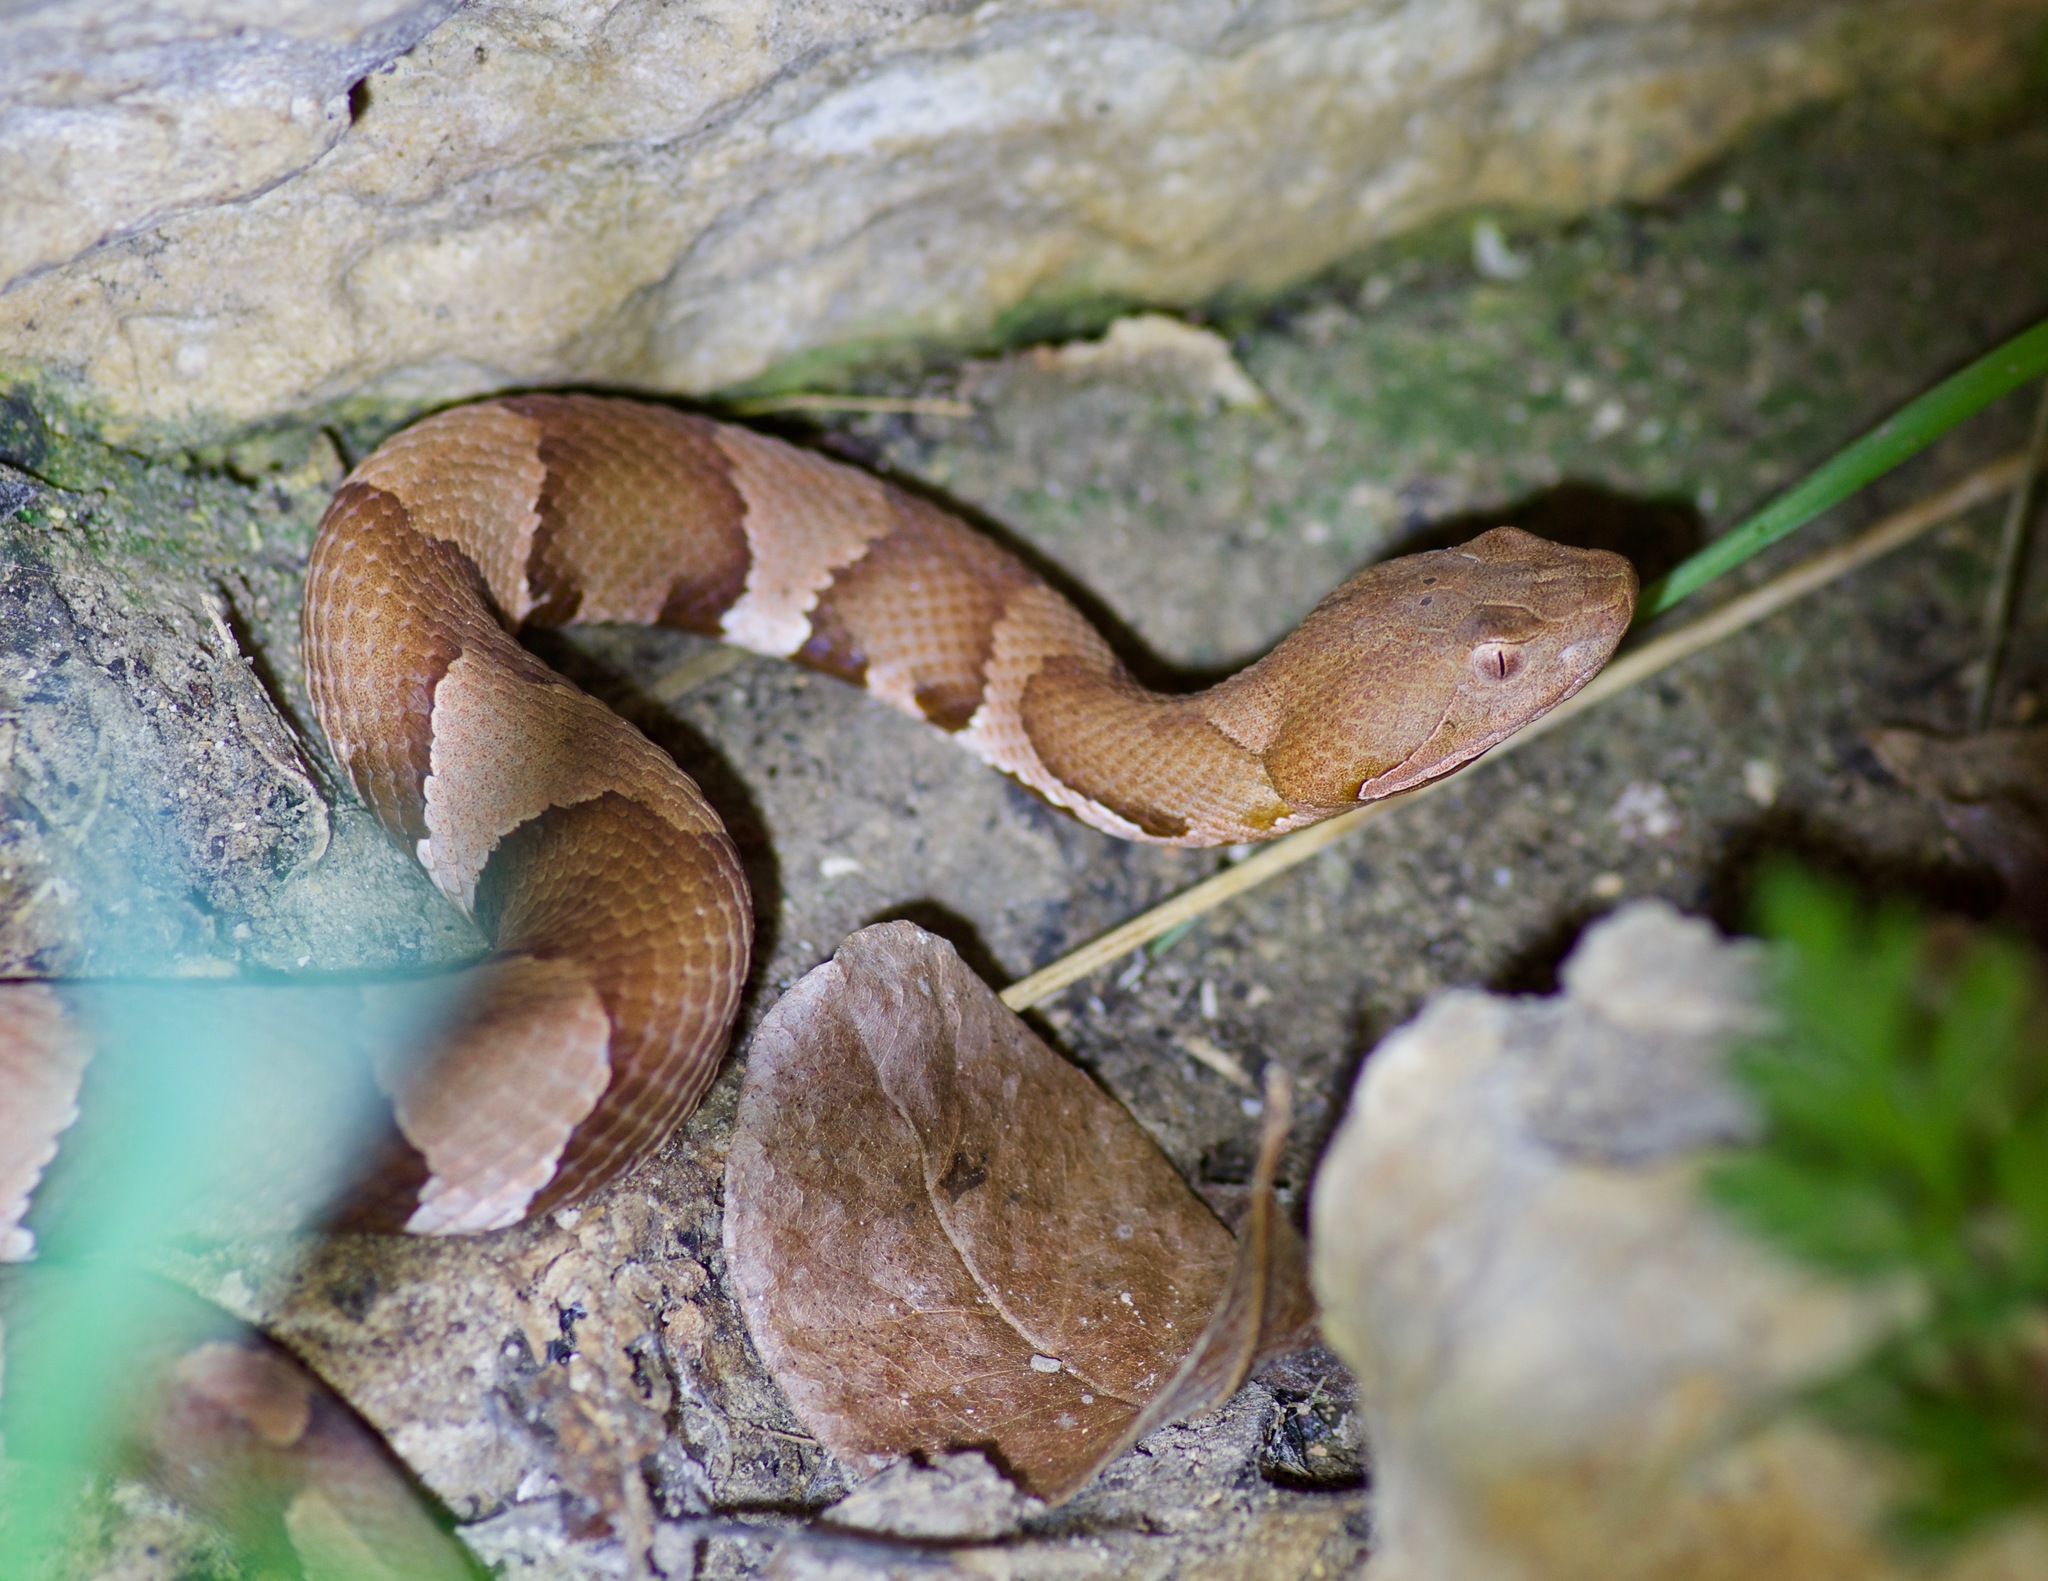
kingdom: Animalia
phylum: Chordata
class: Squamata
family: Viperidae
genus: Agkistrodon
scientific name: Agkistrodon laticinctus
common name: Broad-banded copperhead
